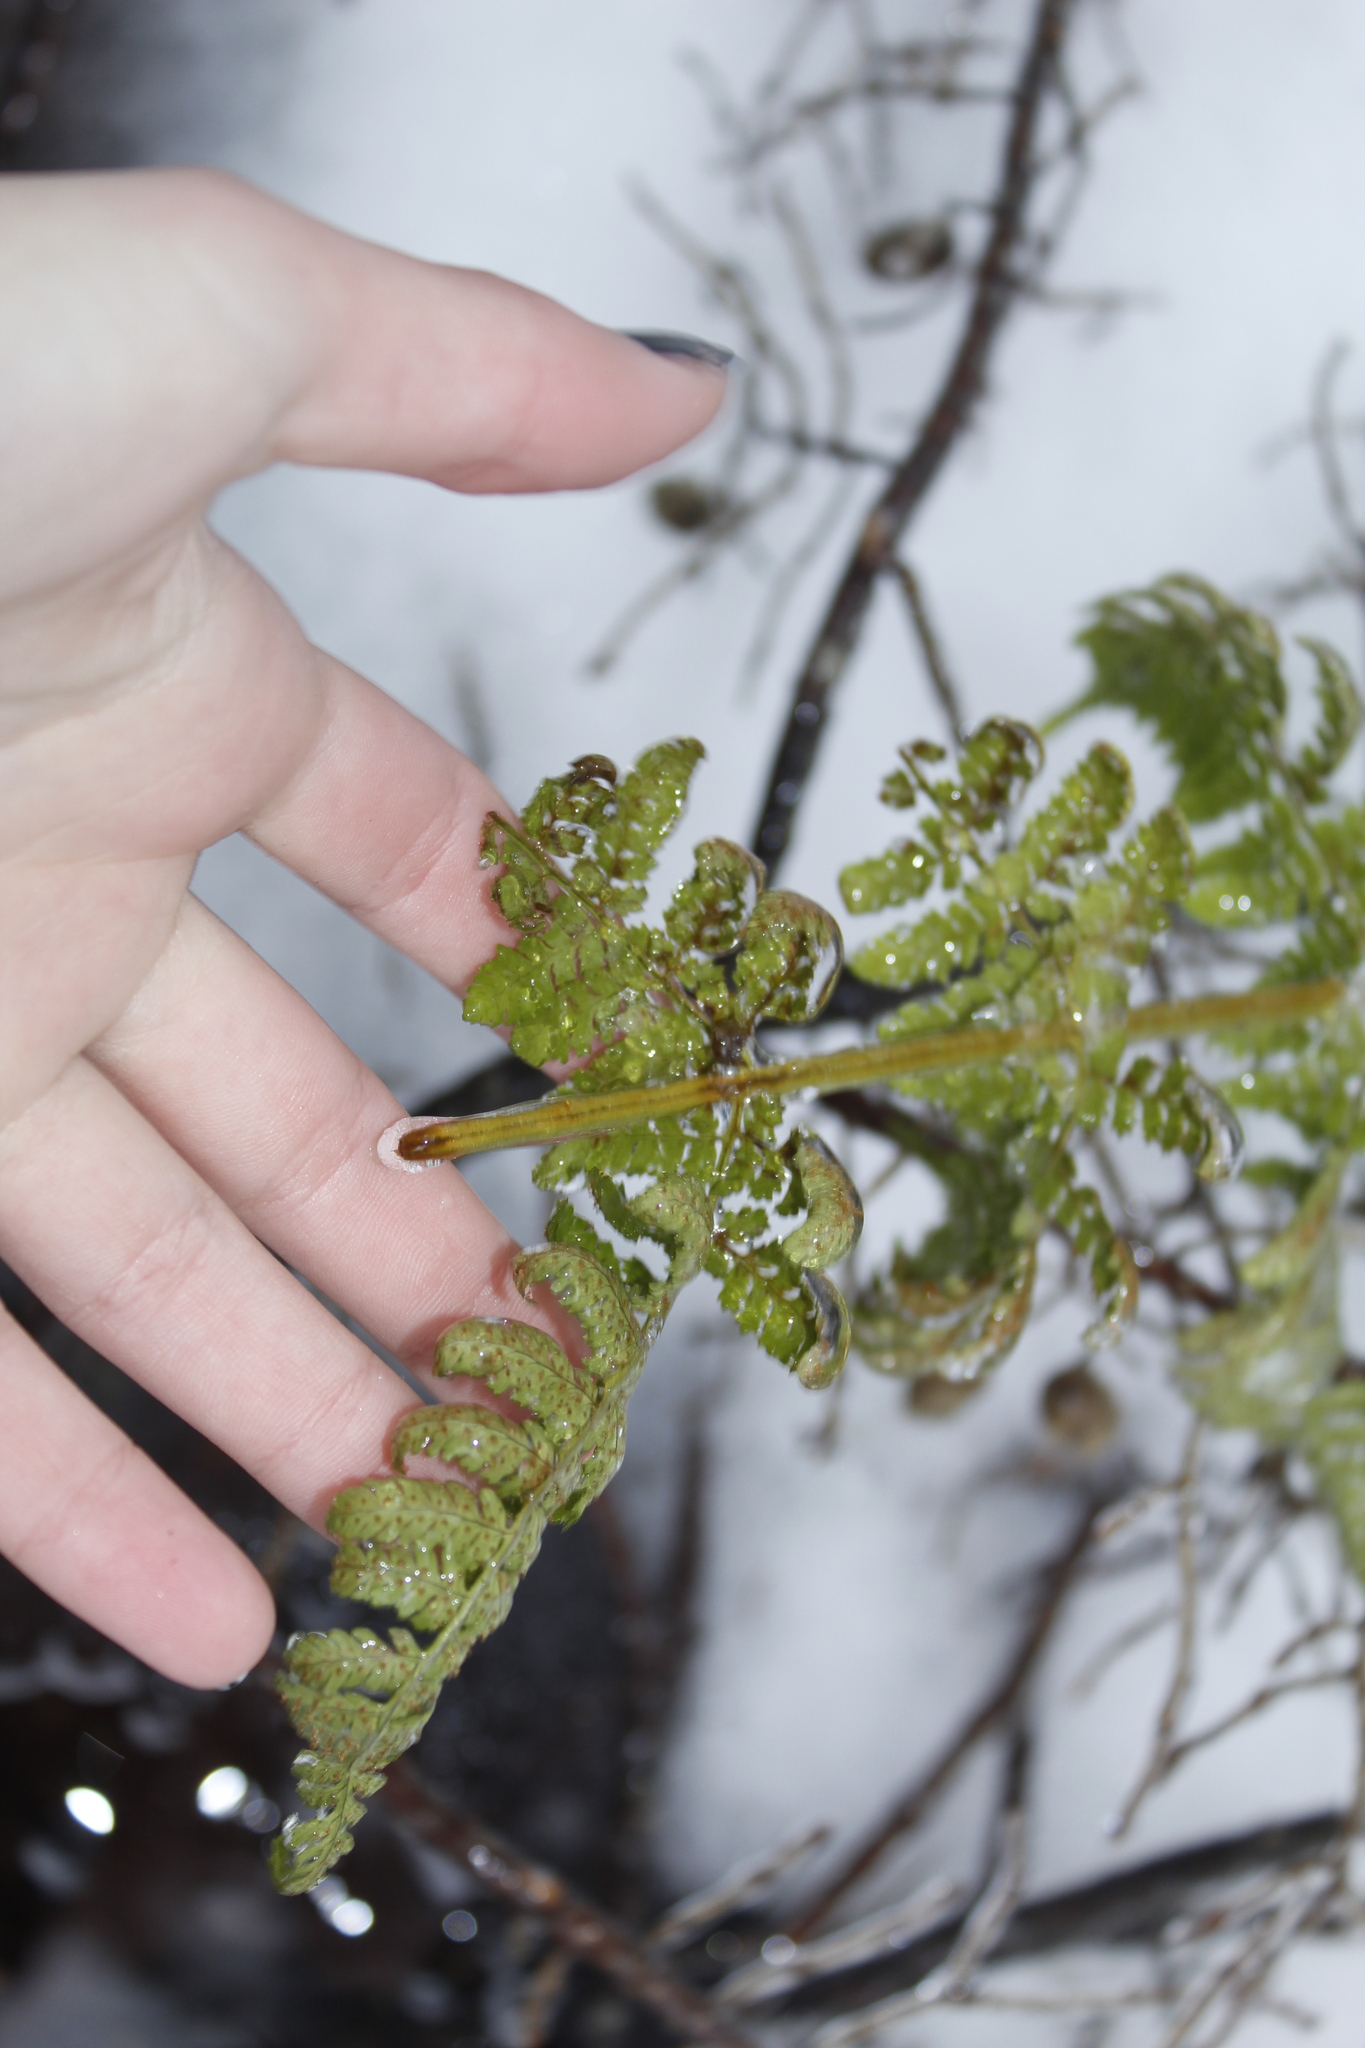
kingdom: Plantae
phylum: Tracheophyta
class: Polypodiopsida
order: Polypodiales
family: Dryopteridaceae
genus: Dryopteris
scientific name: Dryopteris intermedia
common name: Evergreen wood fern
